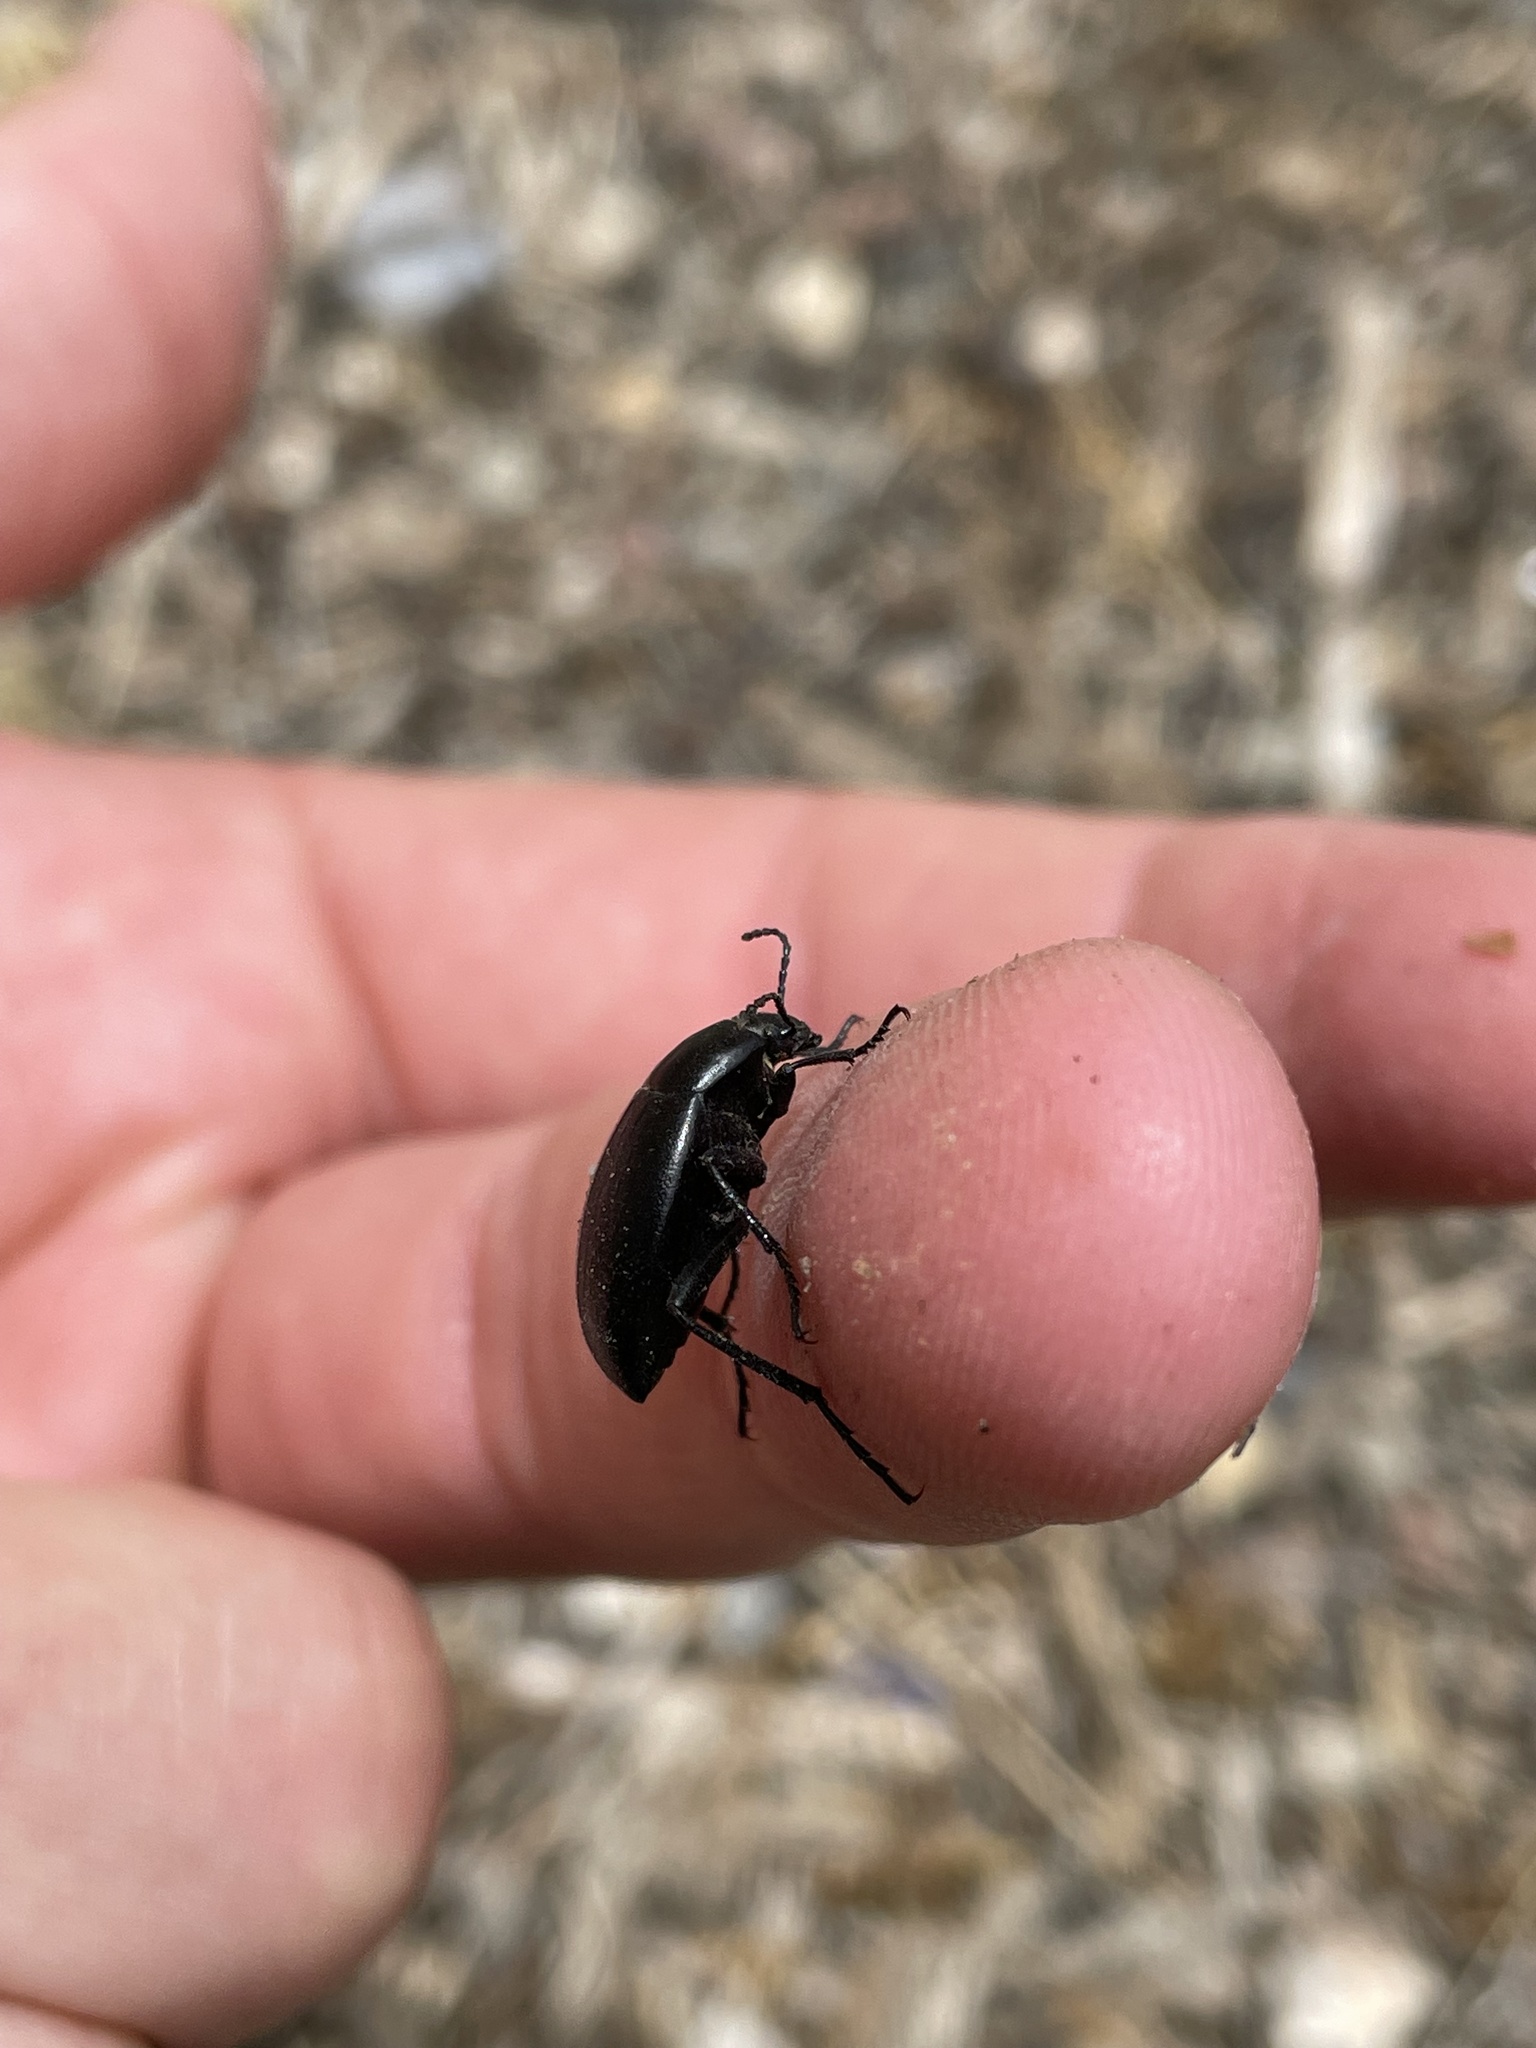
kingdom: Animalia
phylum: Arthropoda
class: Insecta
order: Coleoptera
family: Tenebrionidae
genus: Eleodes
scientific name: Eleodes fusiformis
